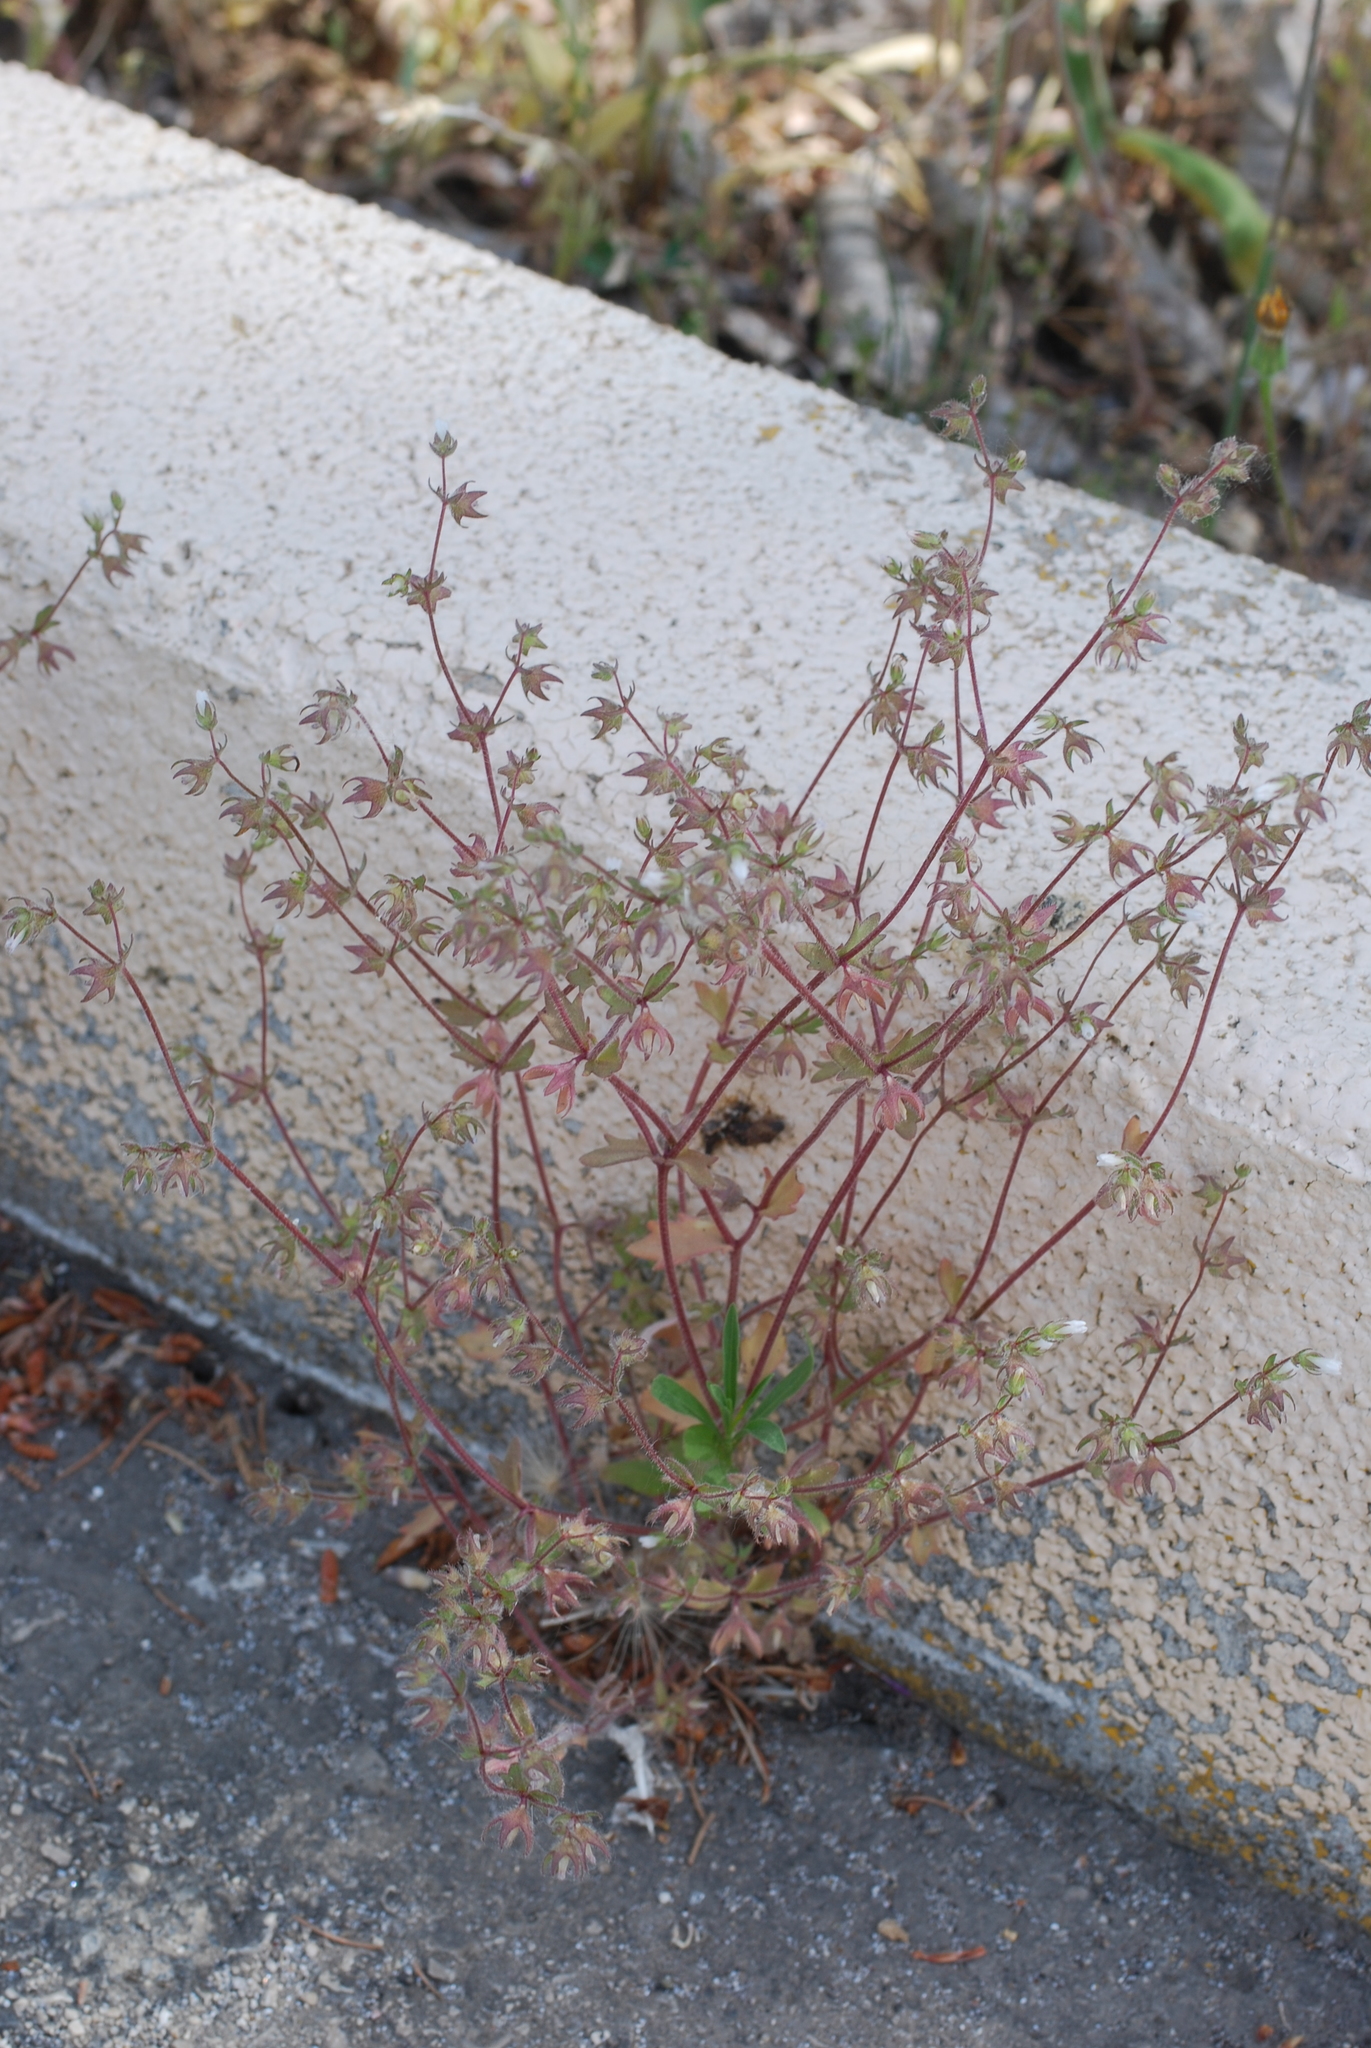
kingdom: Plantae
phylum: Tracheophyta
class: Magnoliopsida
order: Asterales
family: Campanulaceae
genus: Campanula
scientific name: Campanula erinus
